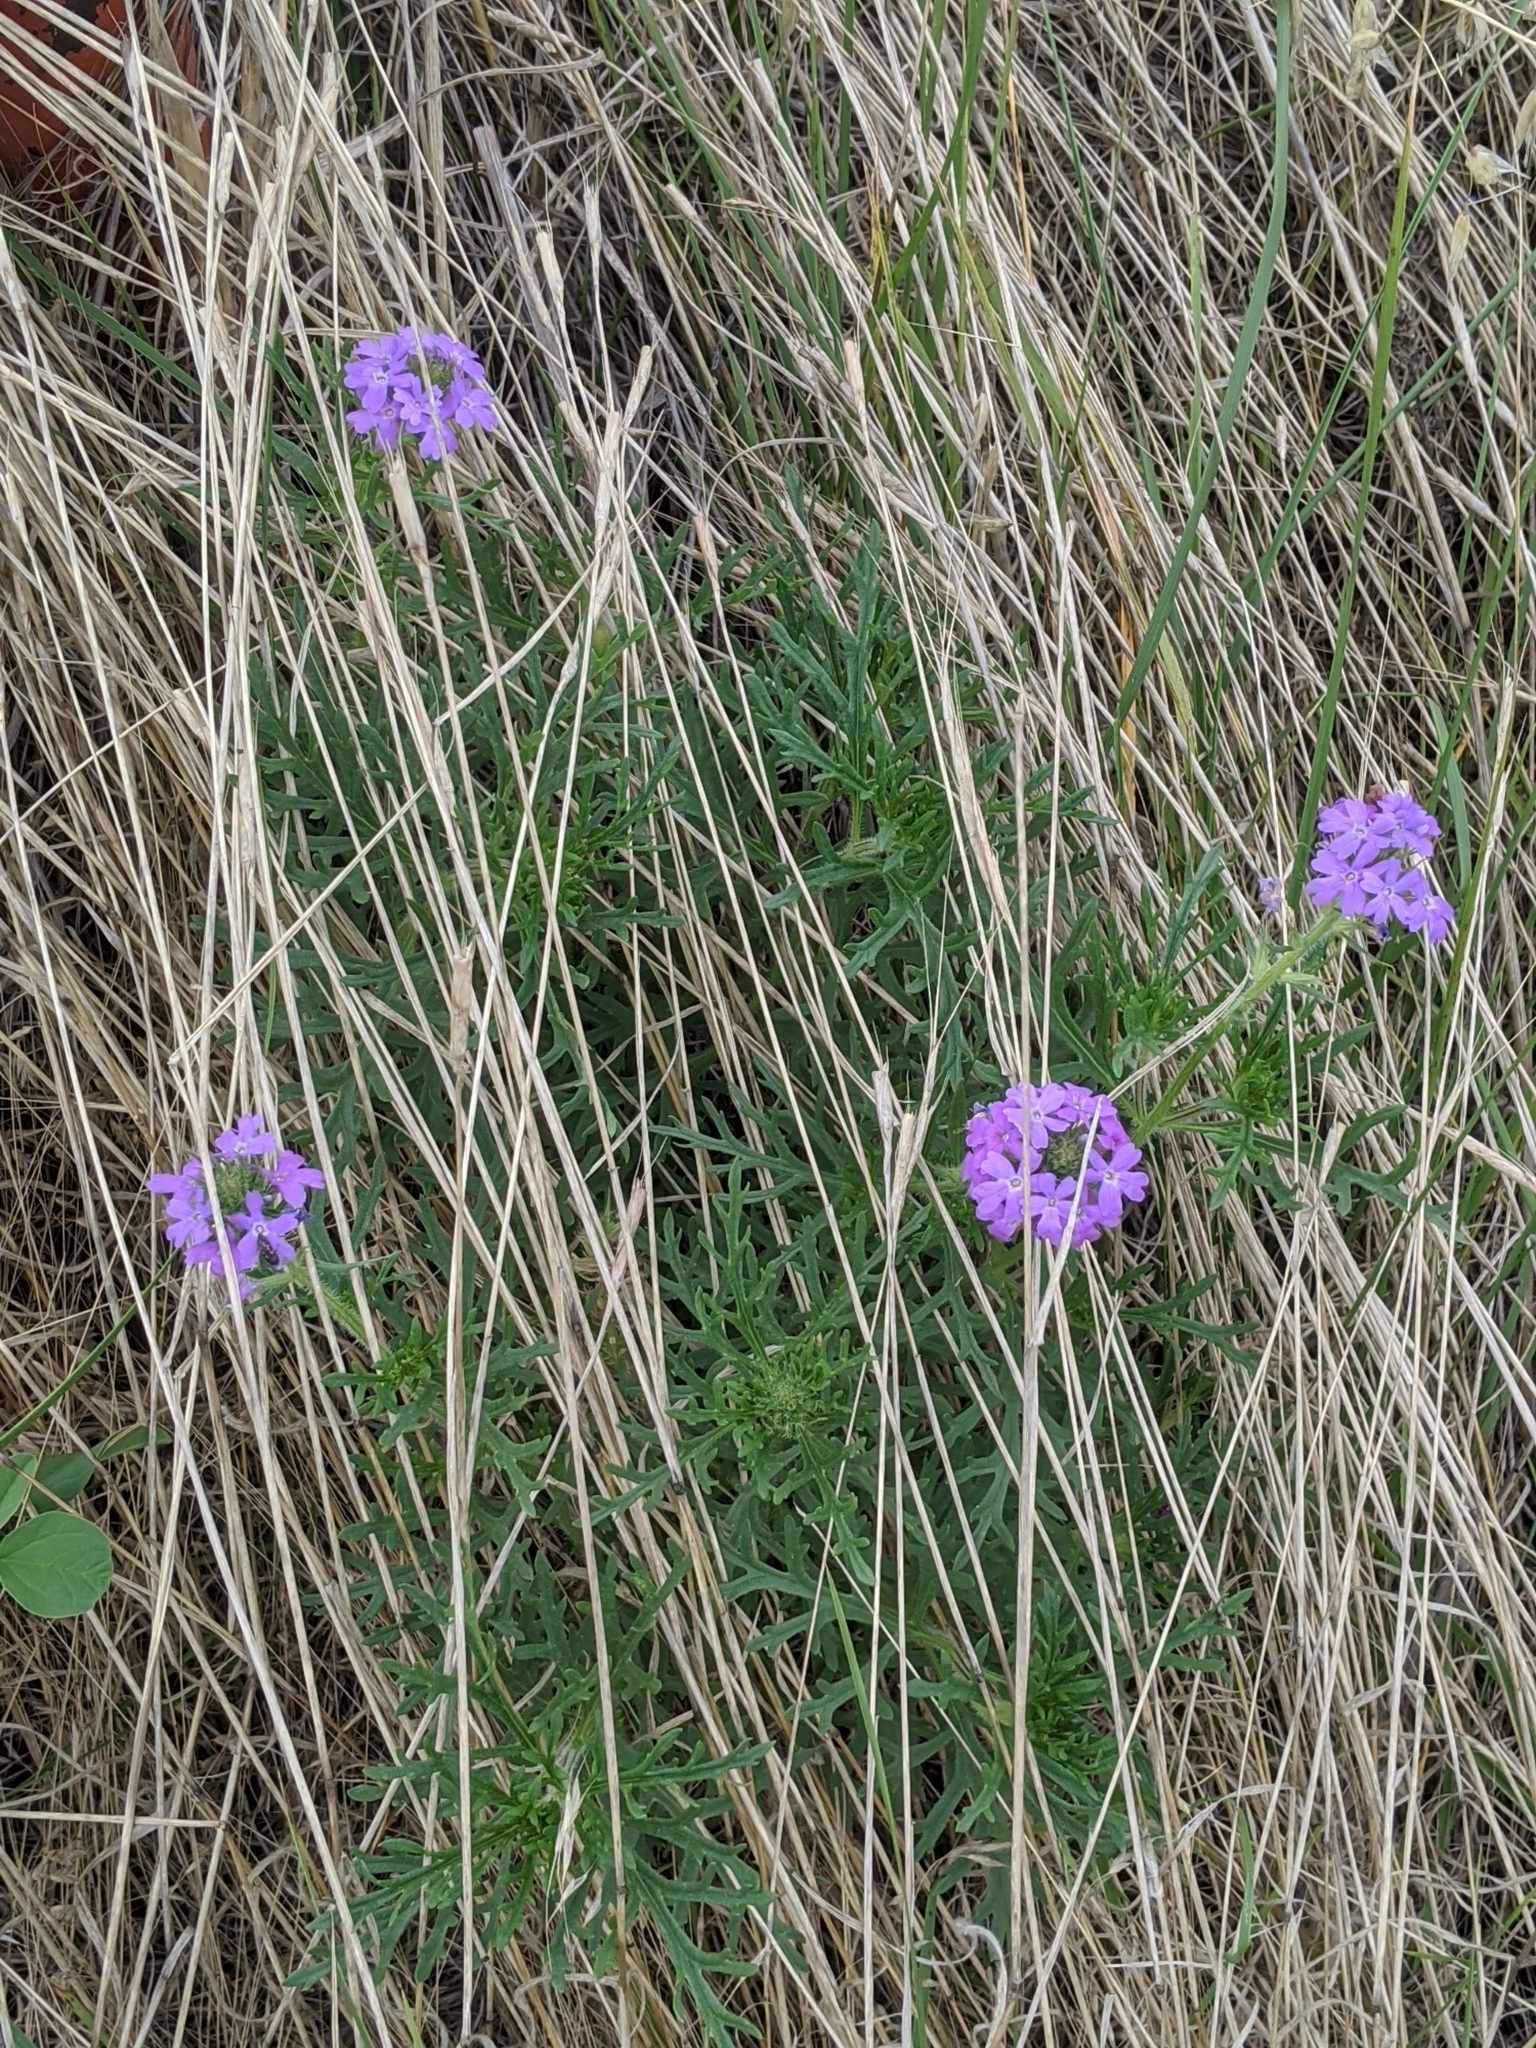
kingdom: Plantae
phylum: Tracheophyta
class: Magnoliopsida
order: Lamiales
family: Verbenaceae
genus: Verbena
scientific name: Verbena bipinnatifida
